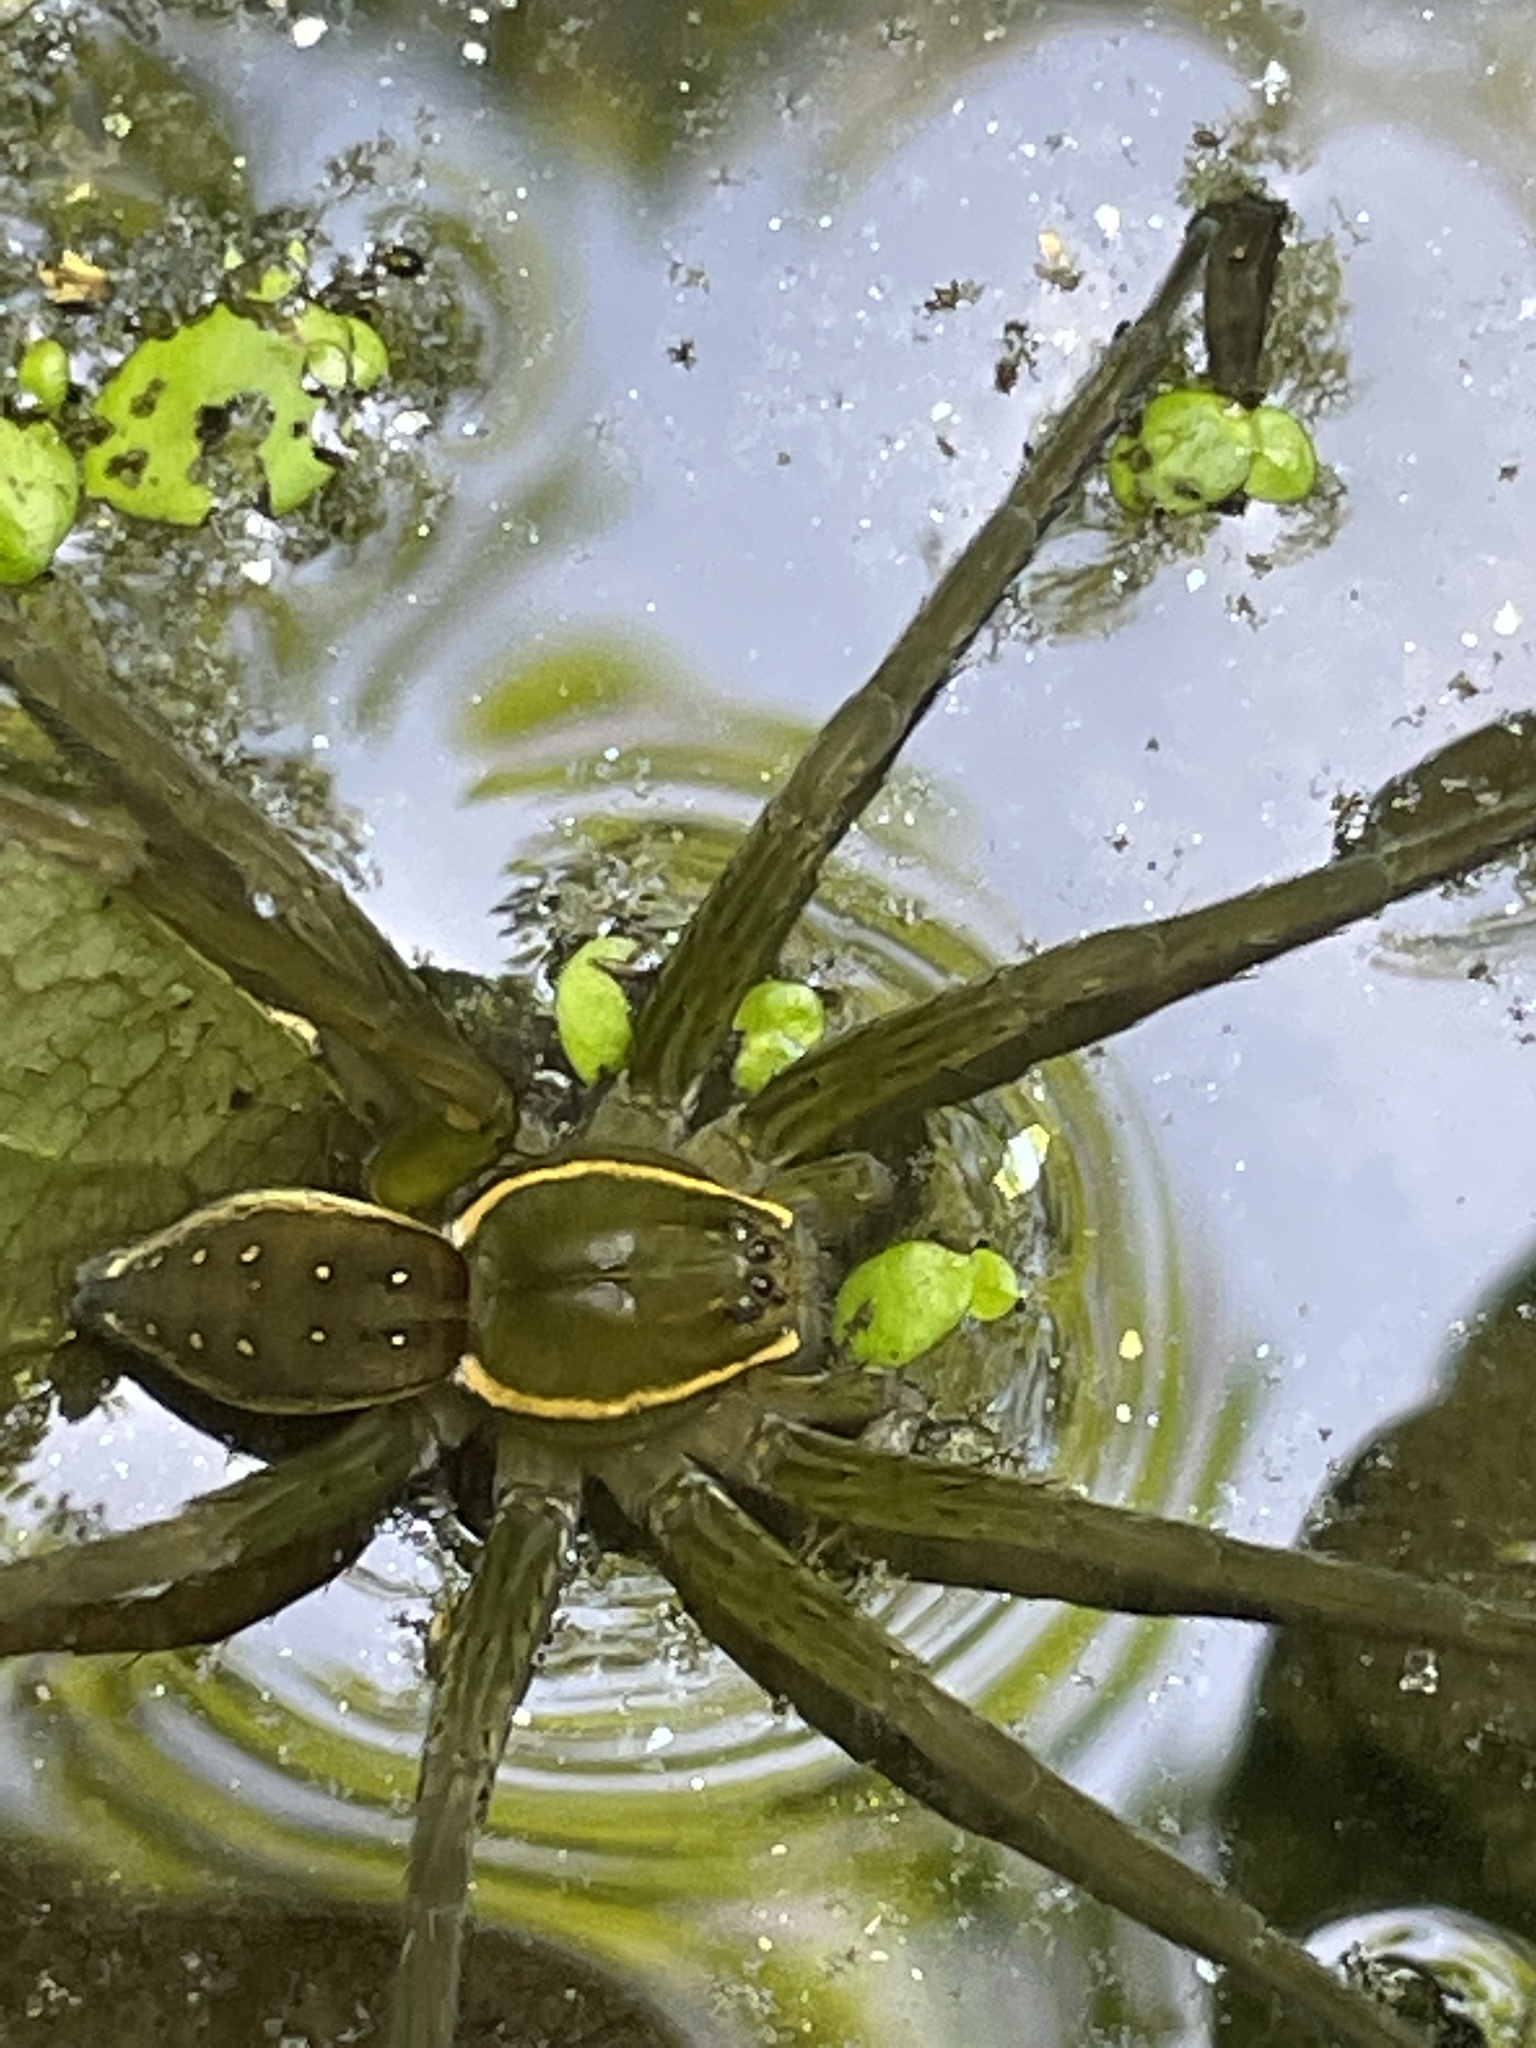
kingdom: Animalia
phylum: Arthropoda
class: Arachnida
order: Araneae
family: Pisauridae
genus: Dolomedes
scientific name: Dolomedes triton
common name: Six-spotted fishing spider
